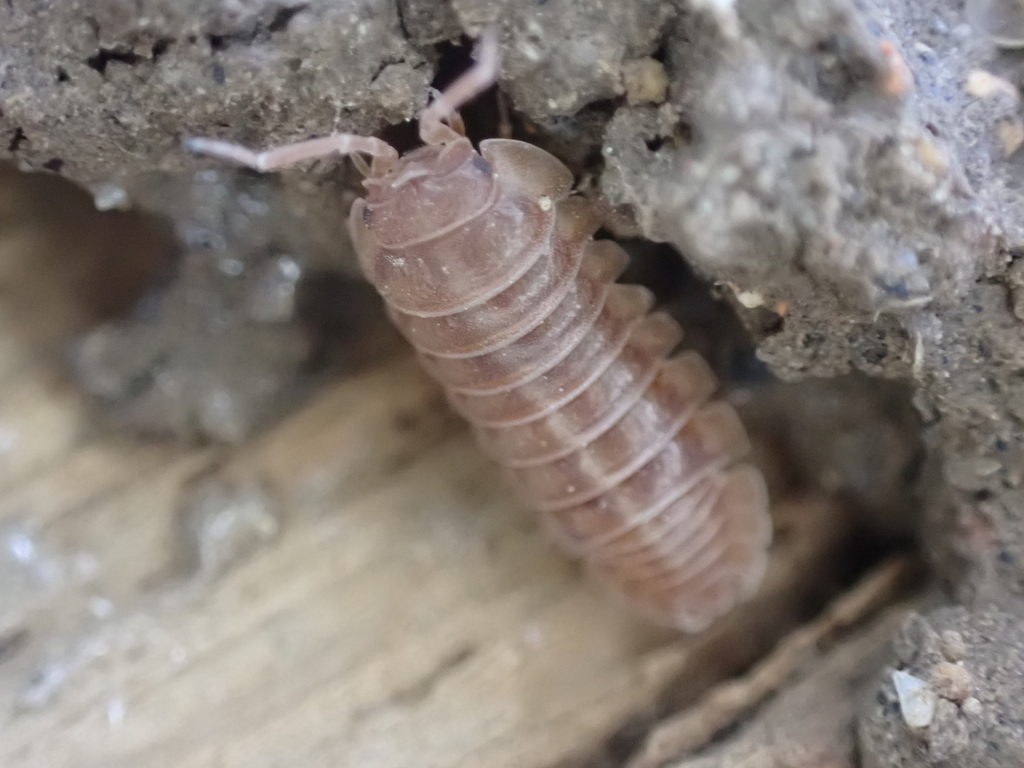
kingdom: Animalia
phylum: Arthropoda
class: Malacostraca
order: Isopoda
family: Armadillidiidae
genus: Armadillidium
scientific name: Armadillidium nasatum
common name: Isopod
